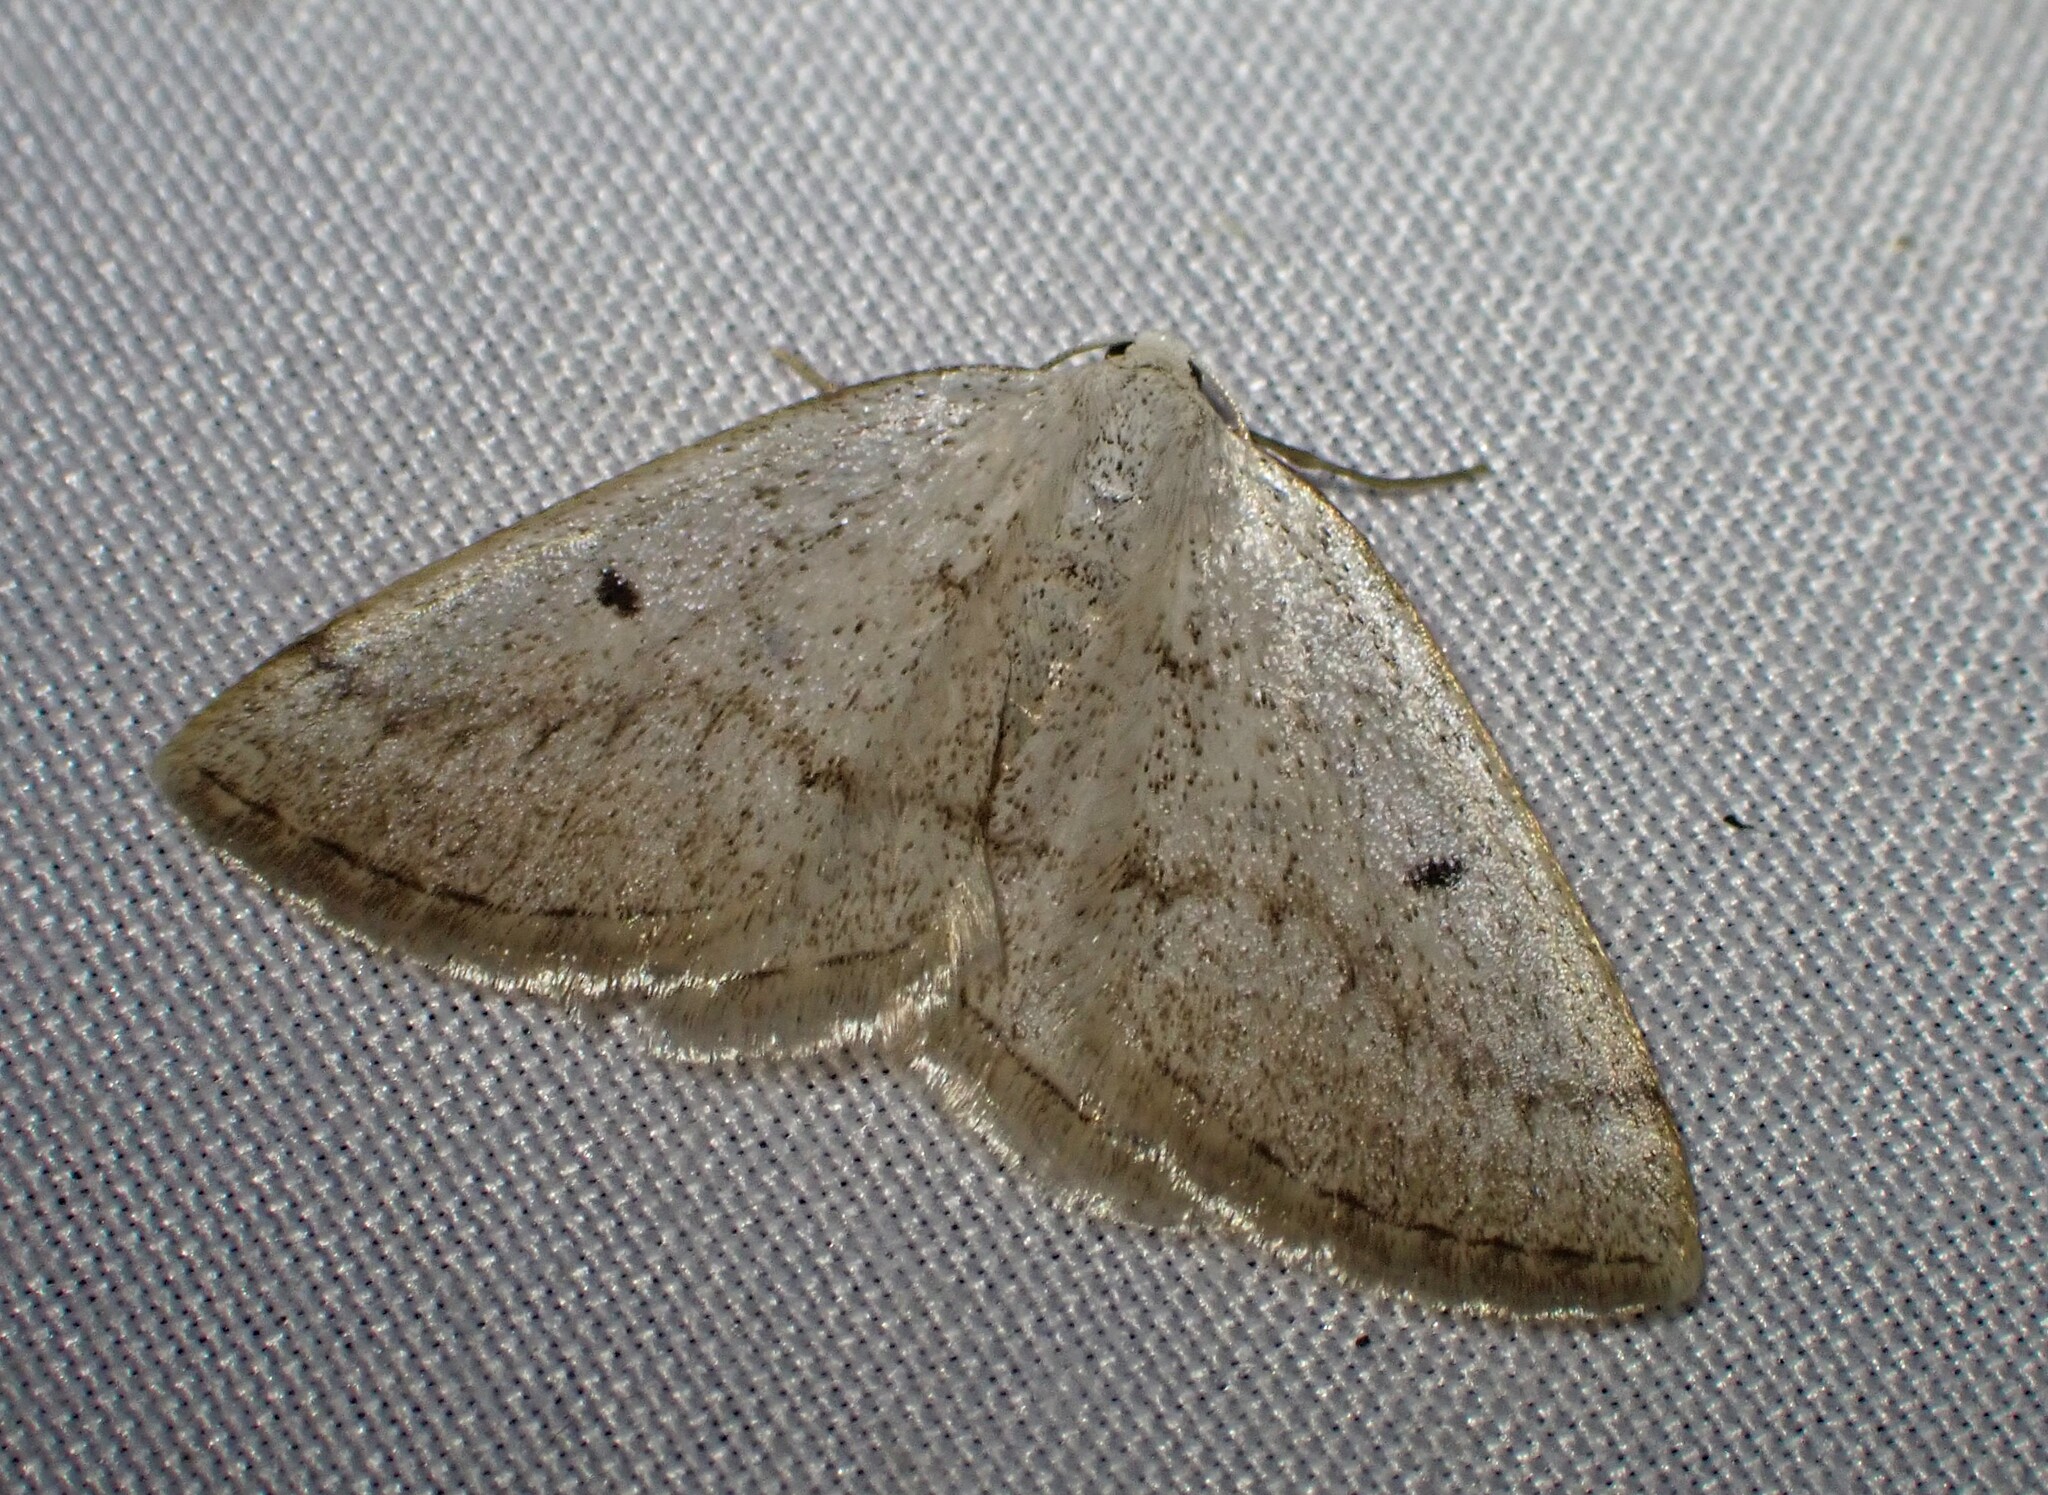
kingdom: Animalia
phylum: Arthropoda
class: Insecta
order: Lepidoptera
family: Geometridae
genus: Lomographa
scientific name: Lomographa glomeraria
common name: Gray spring moth
